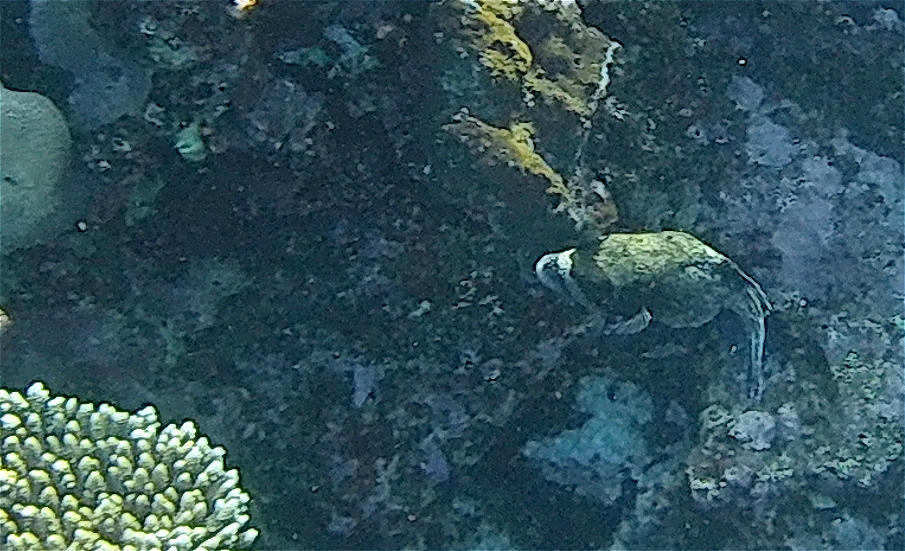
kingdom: Animalia
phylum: Chordata
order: Tetraodontiformes
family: Tetraodontidae
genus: Arothron
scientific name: Arothron diadematus
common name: Masked puffer
